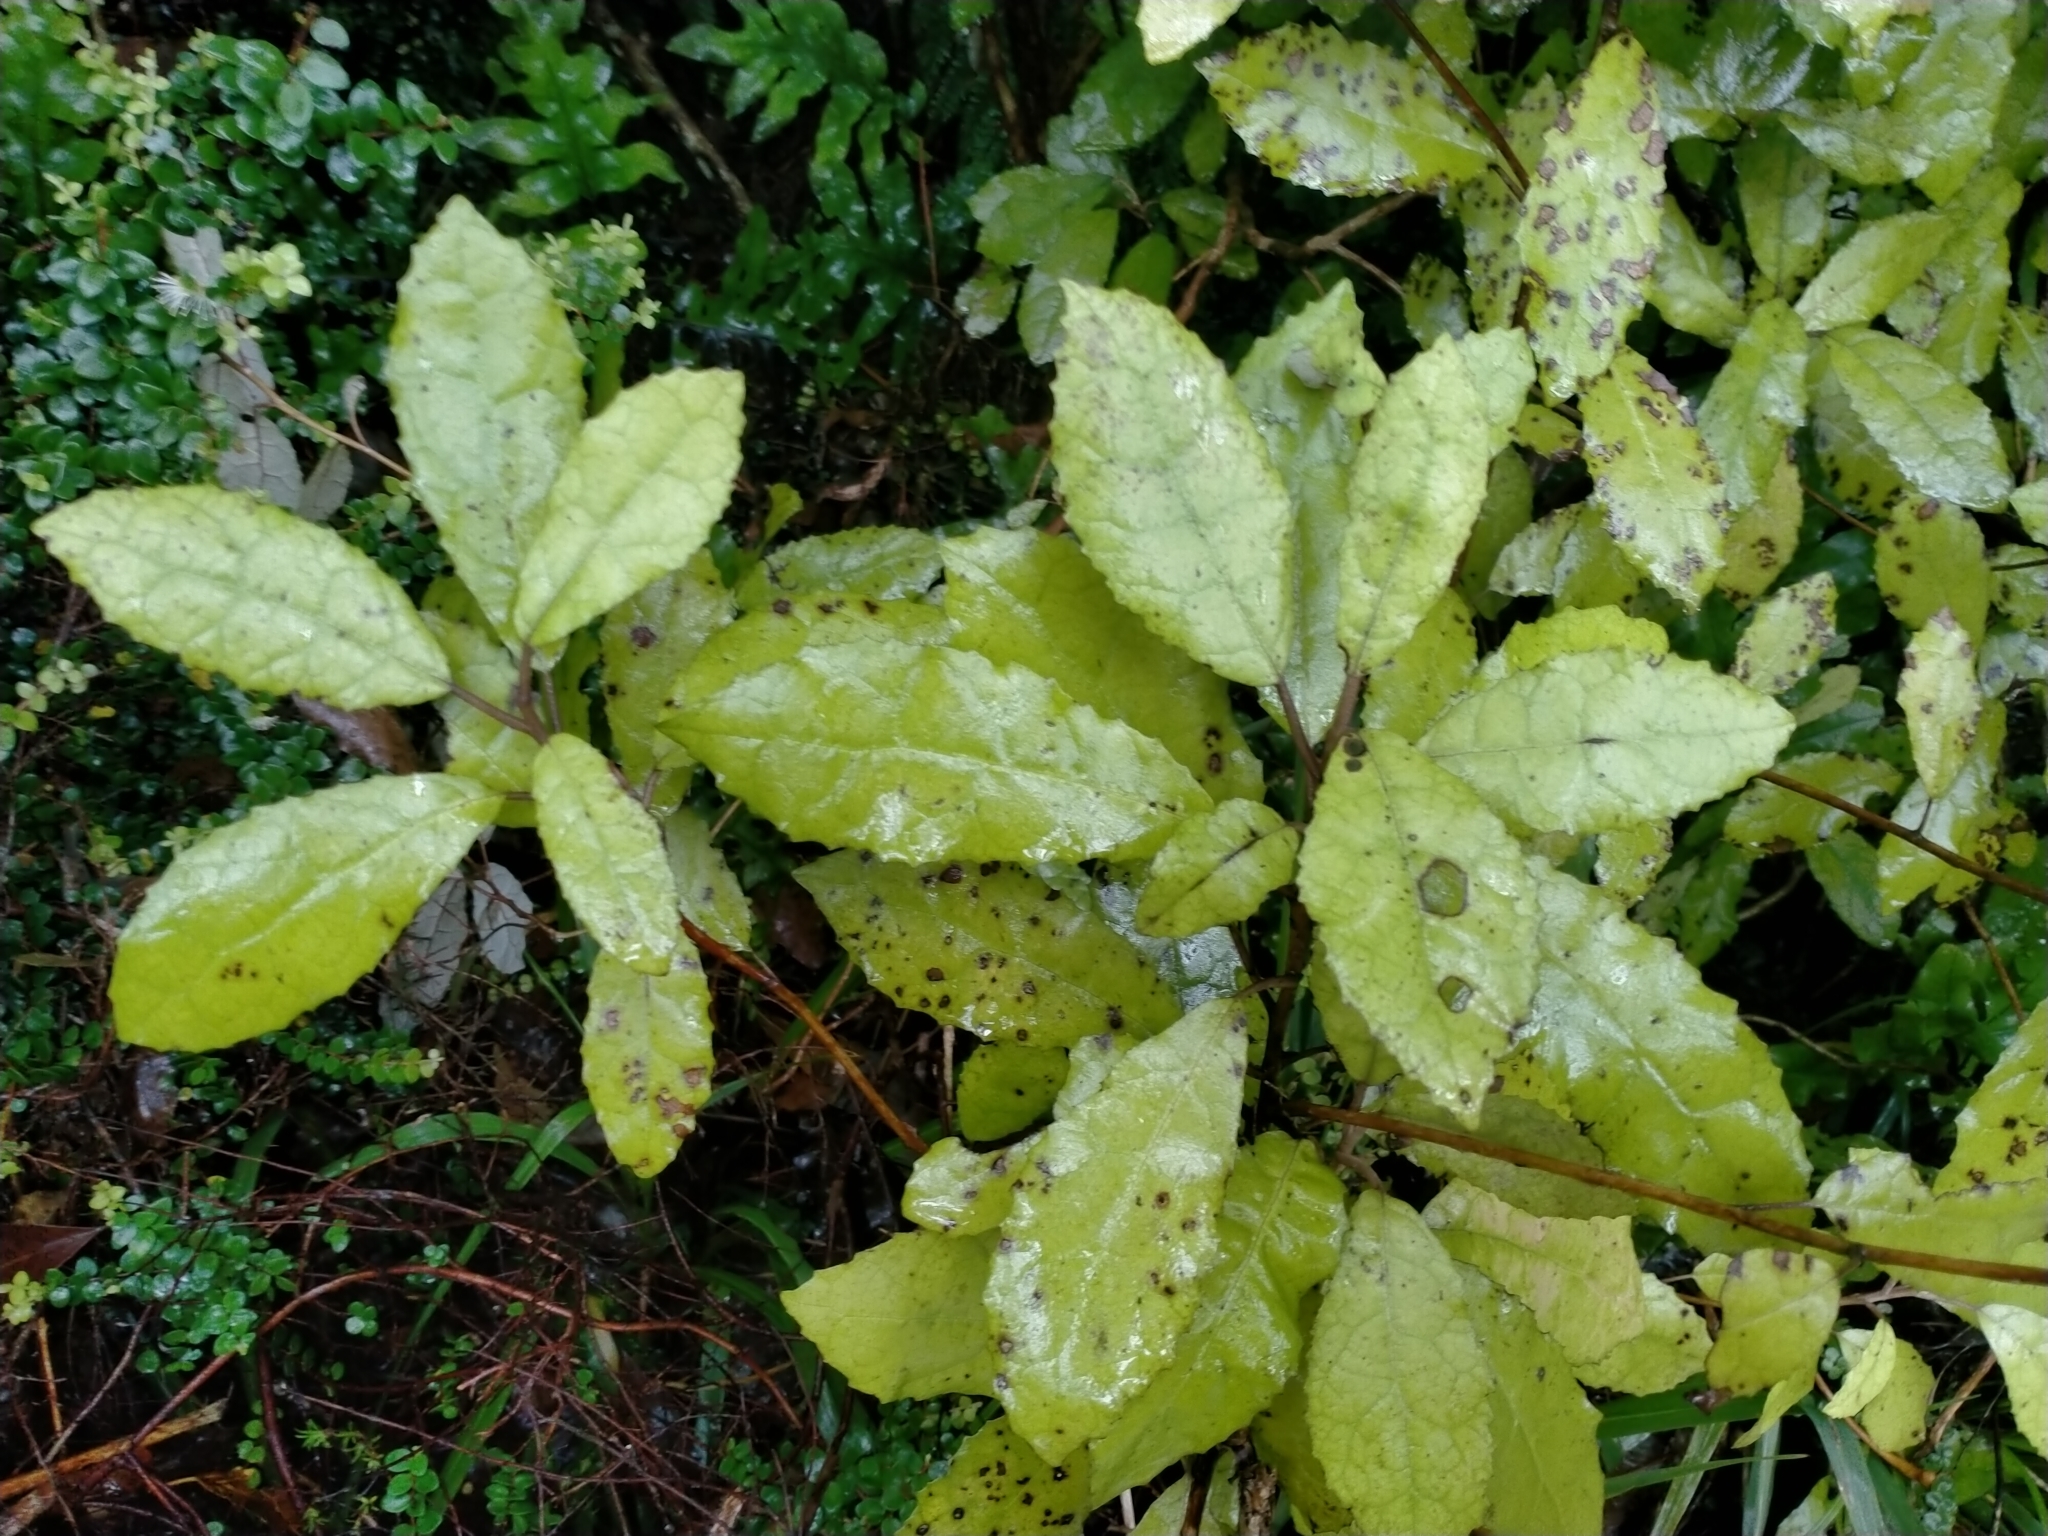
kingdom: Plantae
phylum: Tracheophyta
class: Magnoliopsida
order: Asterales
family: Asteraceae
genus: Olearia
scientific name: Olearia rani
